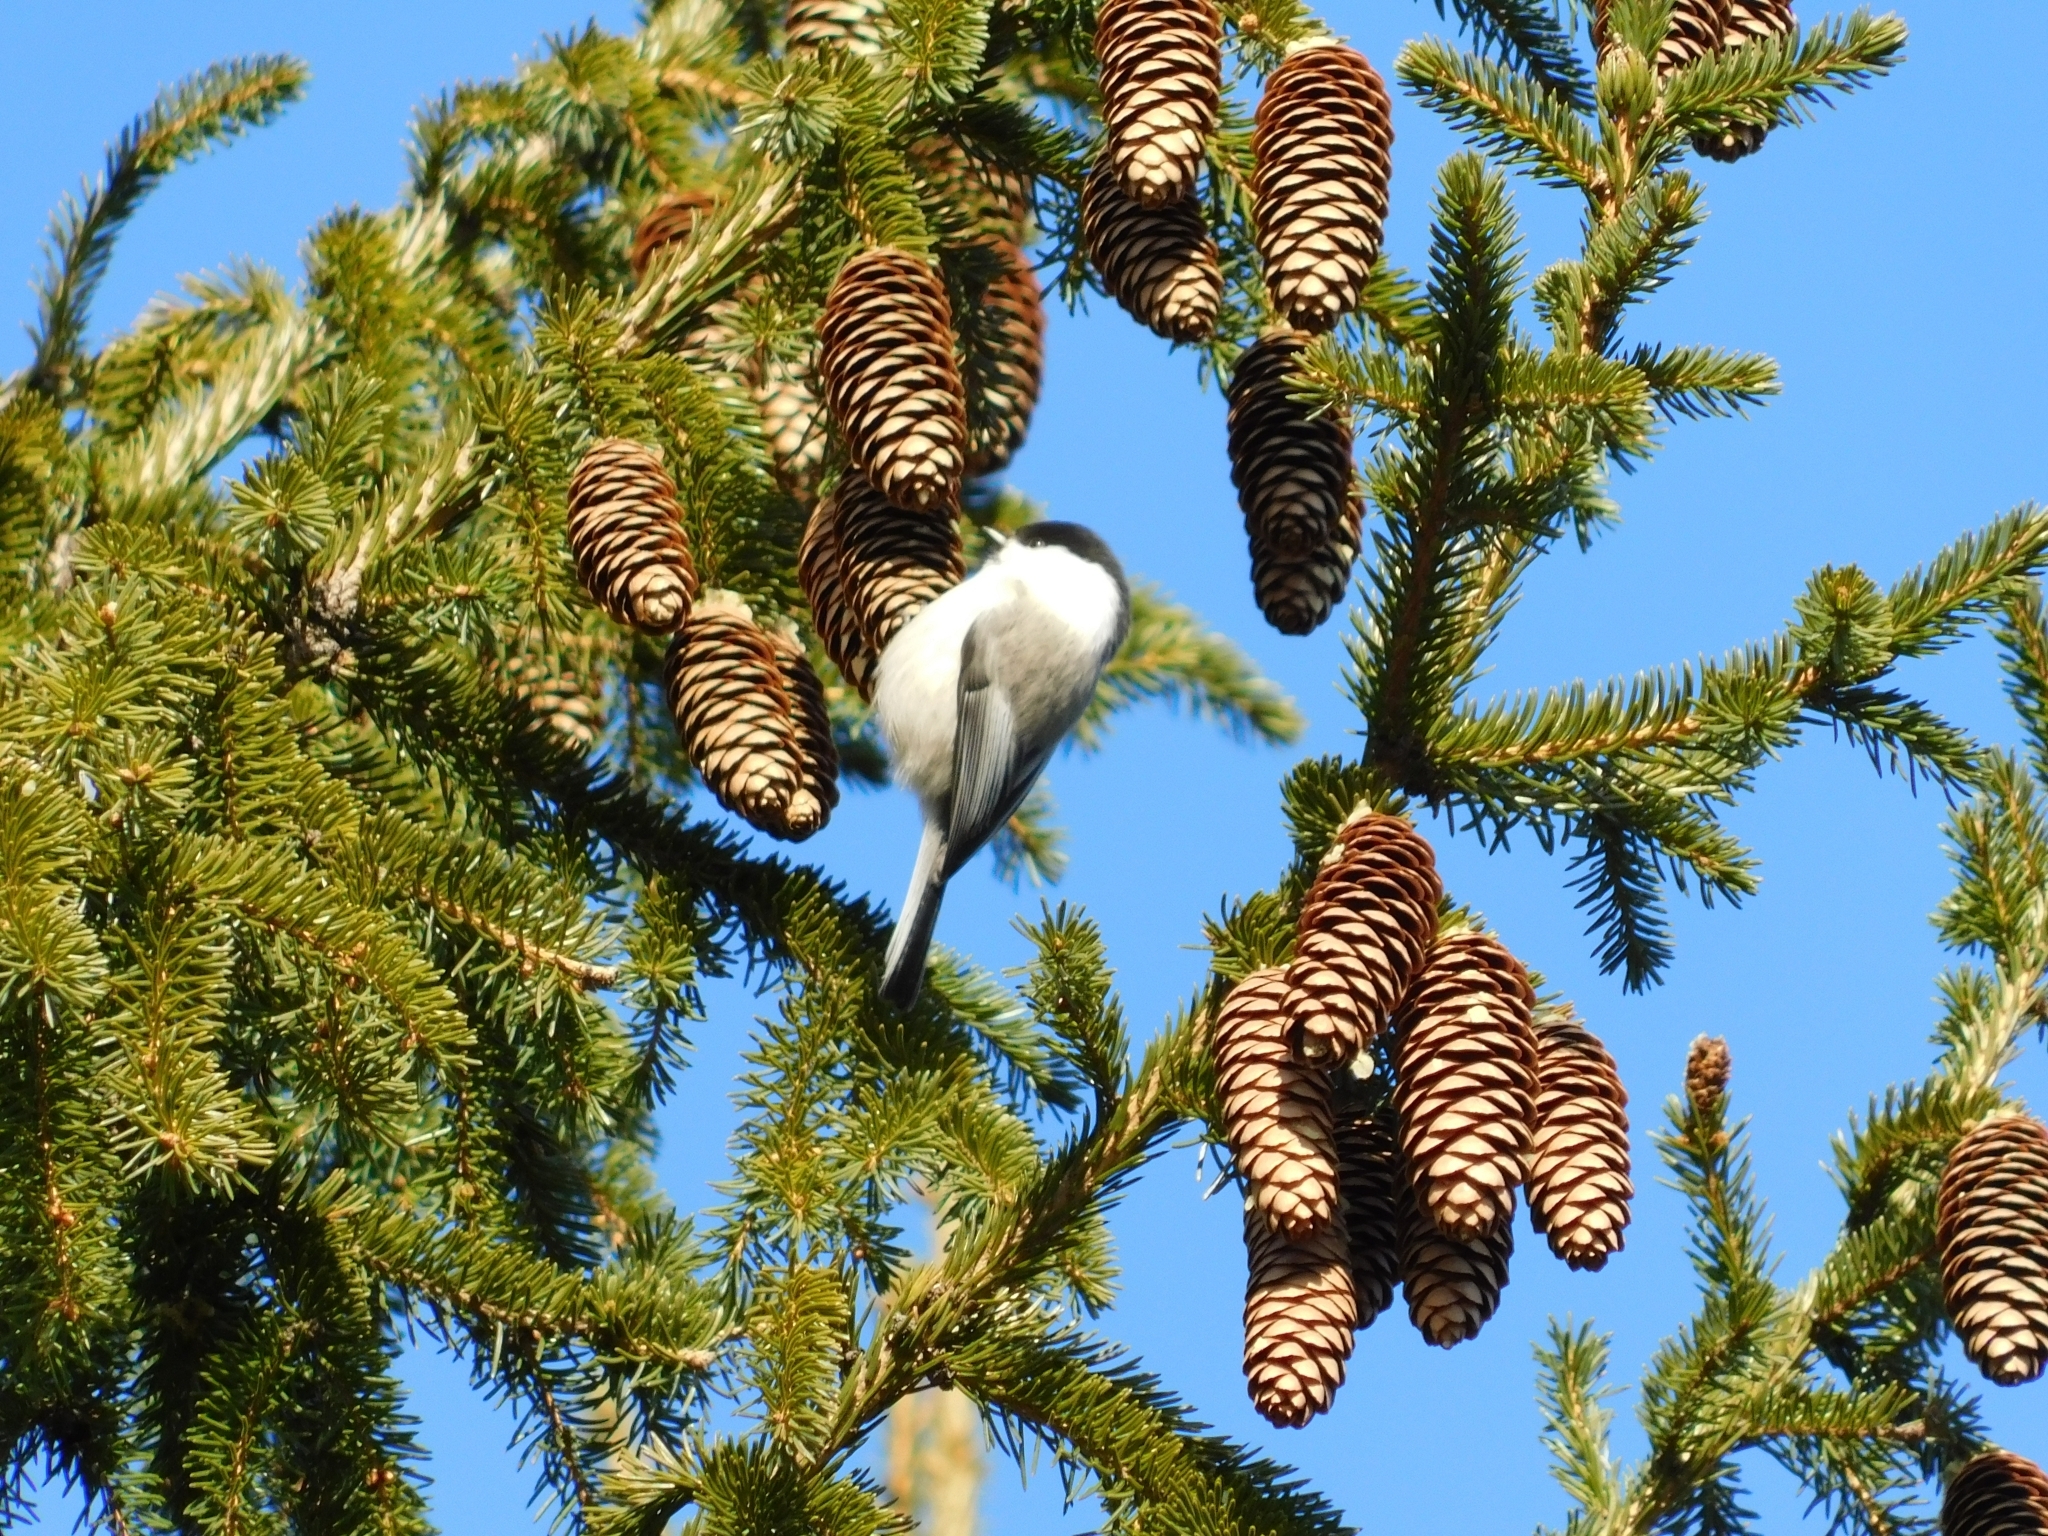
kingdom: Animalia
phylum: Chordata
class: Aves
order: Passeriformes
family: Paridae
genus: Poecile
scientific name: Poecile montanus
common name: Willow tit
